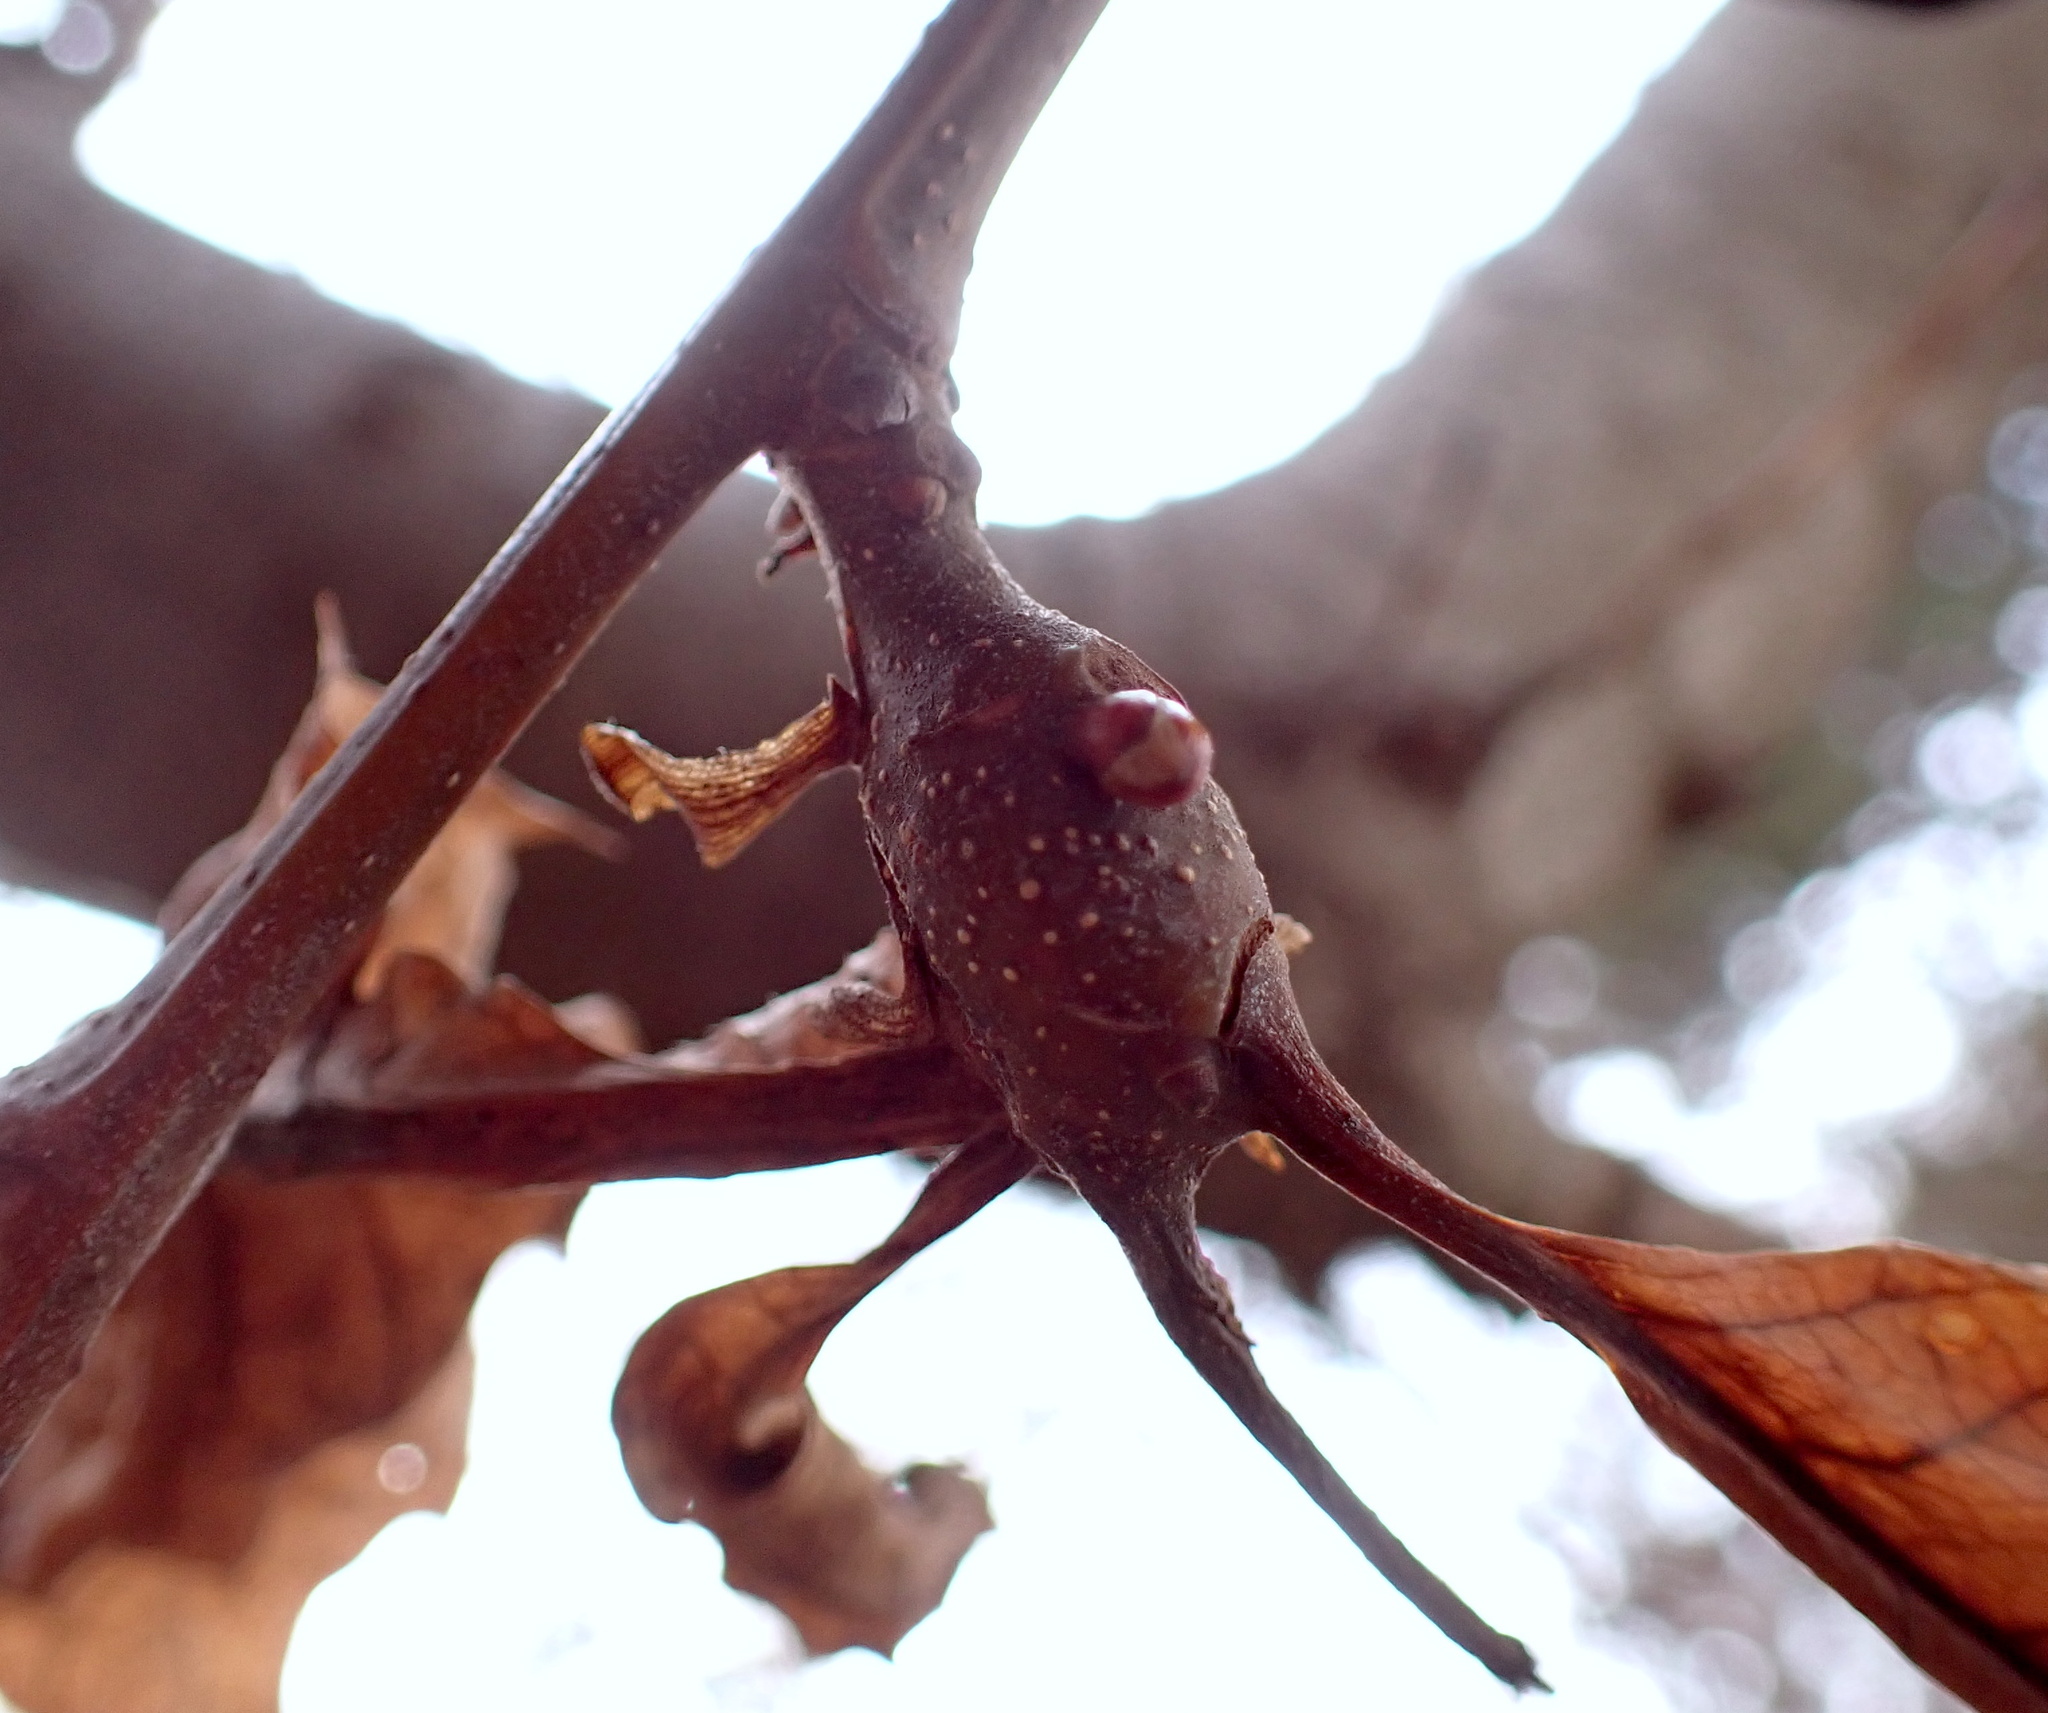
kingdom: Animalia
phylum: Arthropoda
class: Insecta
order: Hymenoptera
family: Cynipidae
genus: Dryocosmus
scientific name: Dryocosmus kuriphilus
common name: Asian chestnut gall wasp
